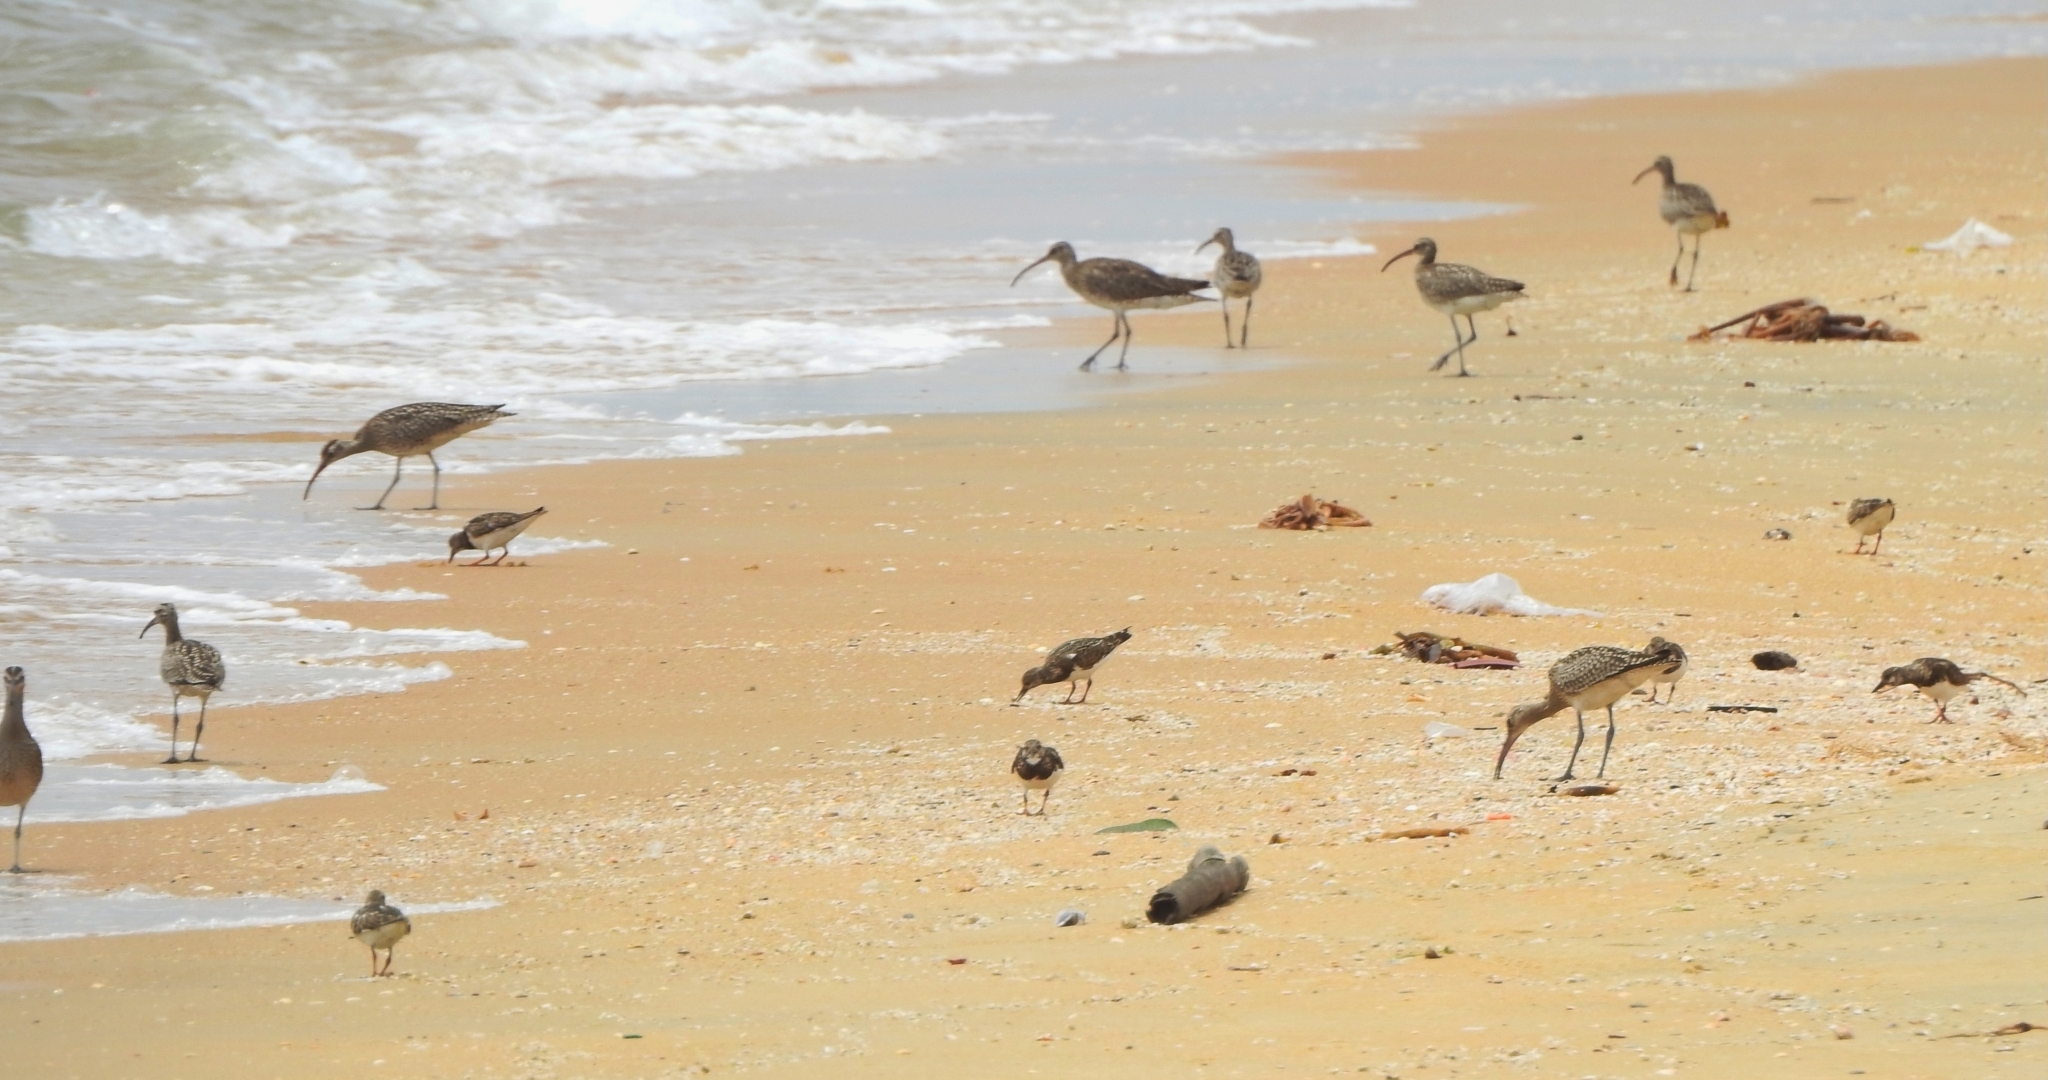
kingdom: Animalia
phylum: Chordata
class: Aves
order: Charadriiformes
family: Scolopacidae
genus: Numenius
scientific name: Numenius phaeopus
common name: Whimbrel
